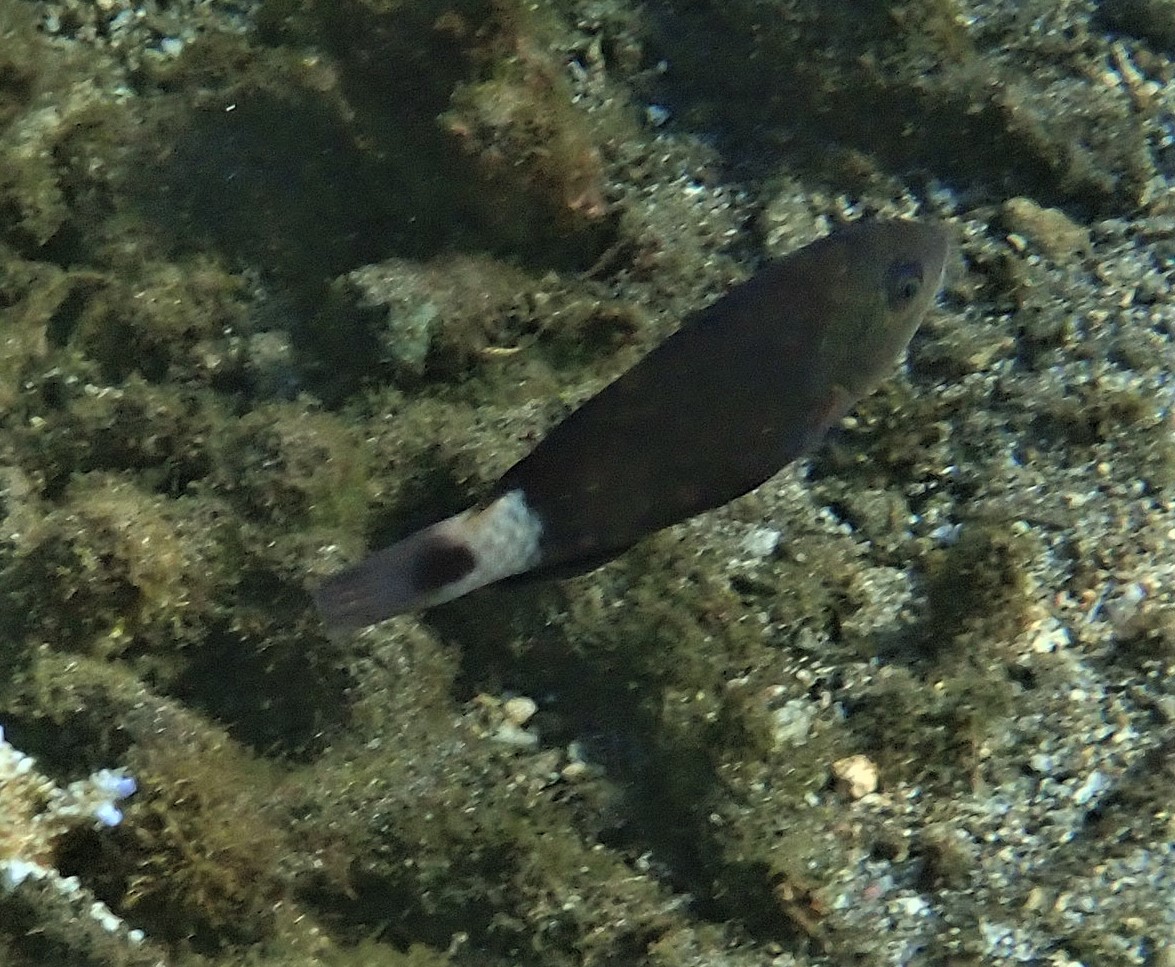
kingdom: Animalia
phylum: Chordata
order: Perciformes
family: Scaridae
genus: Chlorurus
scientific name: Chlorurus sordidus
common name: Bullethead parrotfish
